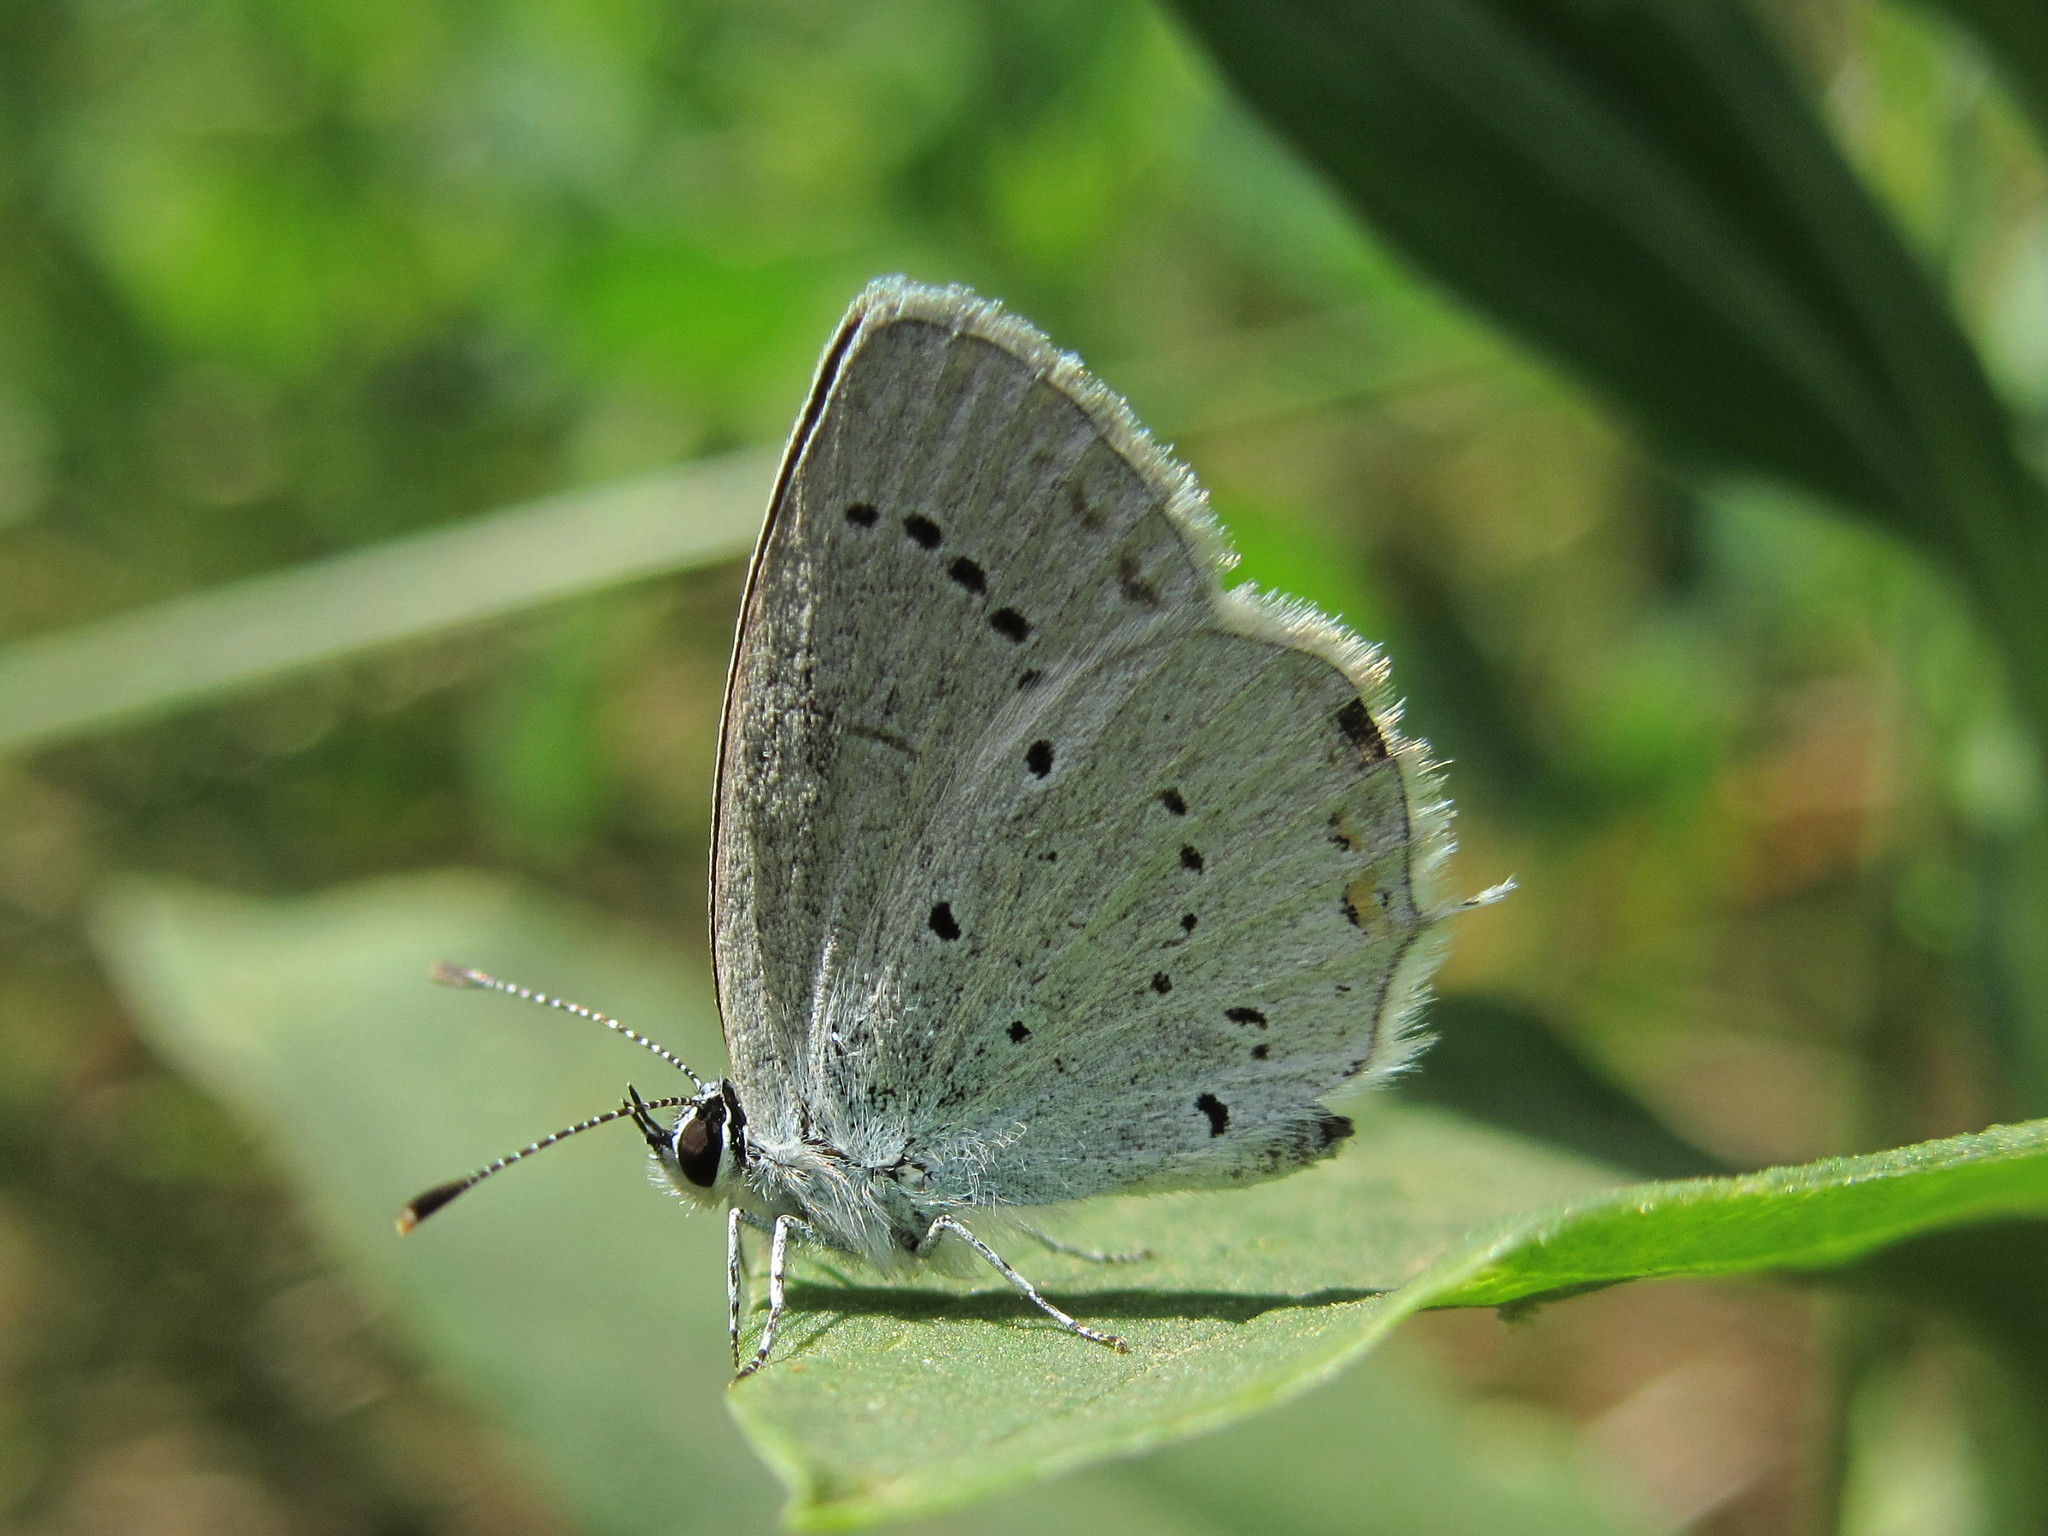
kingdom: Animalia
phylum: Arthropoda
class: Insecta
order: Lepidoptera
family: Lycaenidae
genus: Elkalyce
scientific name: Elkalyce argiades
